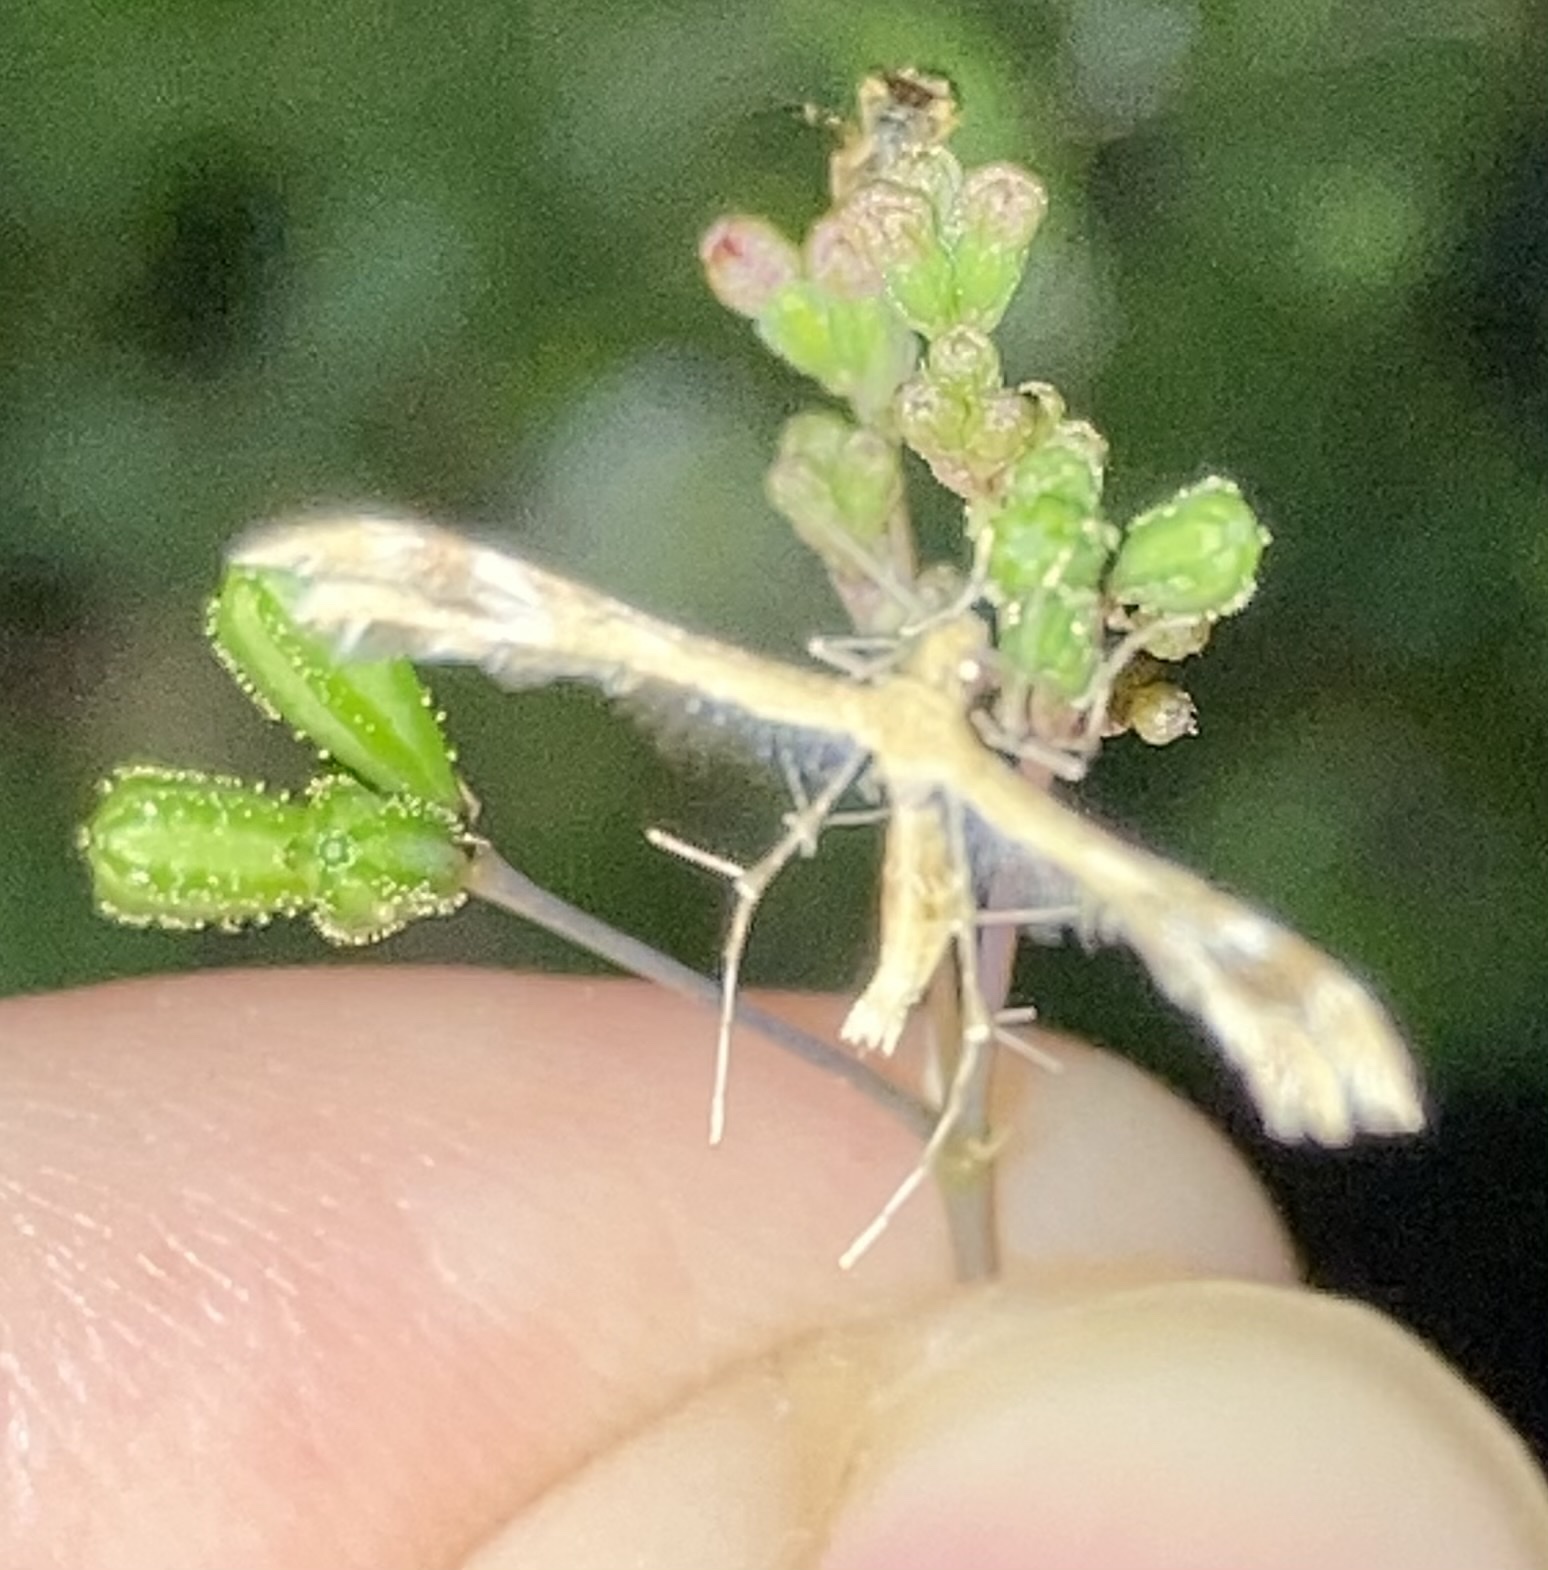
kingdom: Animalia
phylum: Arthropoda
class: Insecta
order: Lepidoptera
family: Pterophoridae
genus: Megalorhipida
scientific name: Megalorhipida leucodactylus
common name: Plume moth
